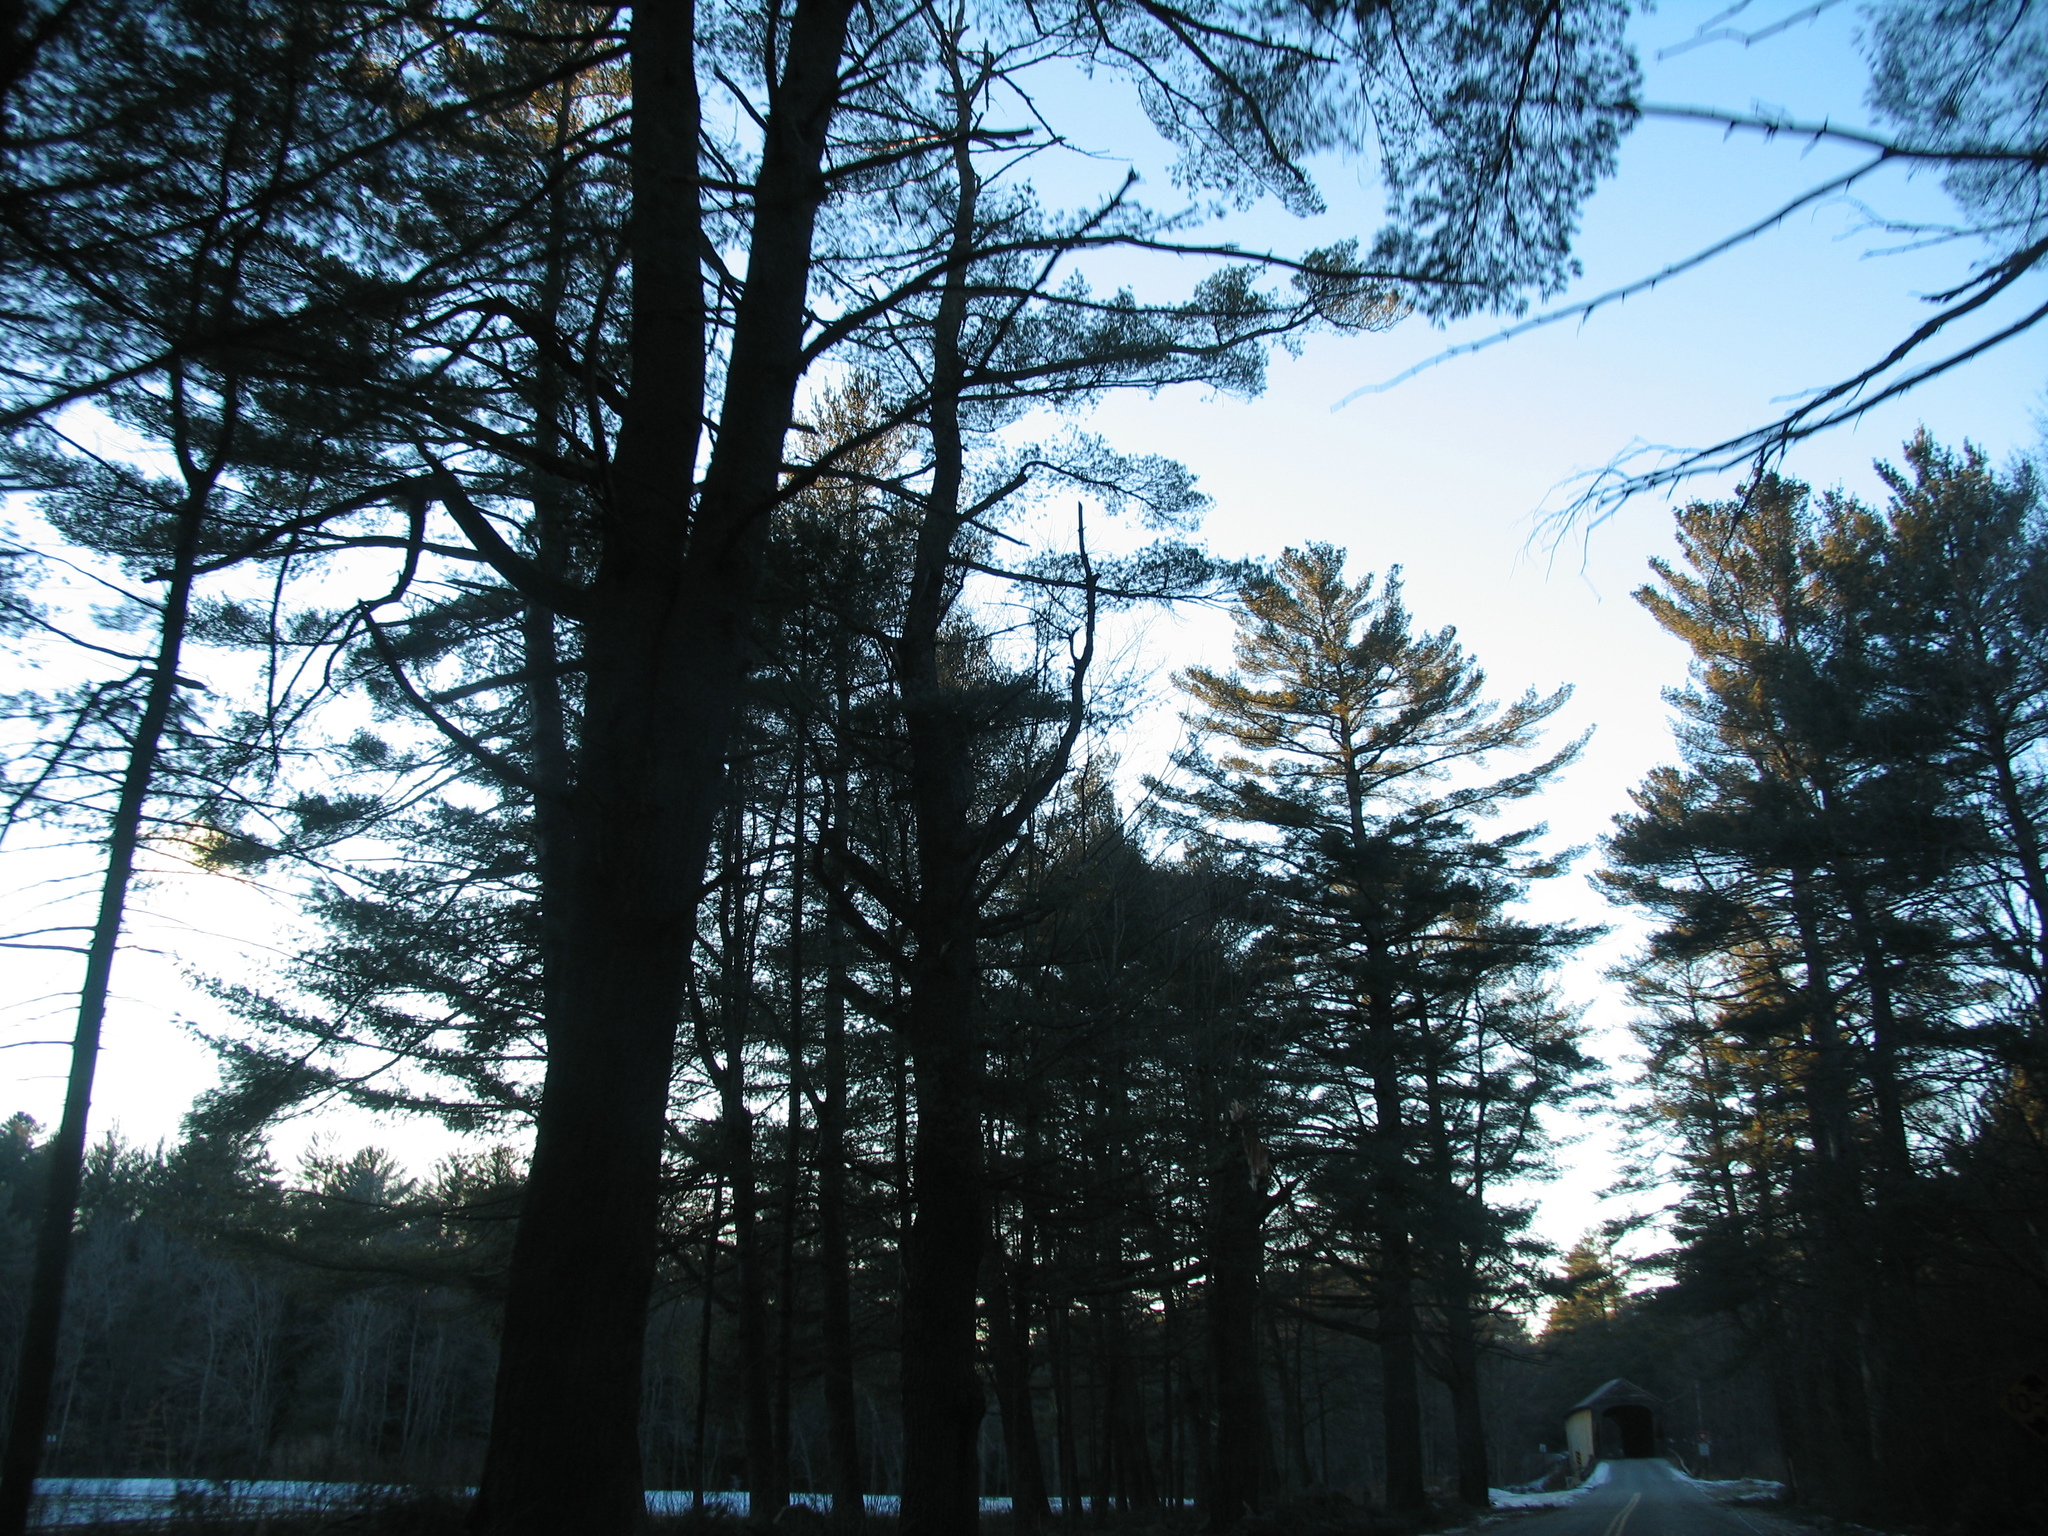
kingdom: Plantae
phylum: Tracheophyta
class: Pinopsida
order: Pinales
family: Pinaceae
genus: Pinus
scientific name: Pinus strobus
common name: Weymouth pine
